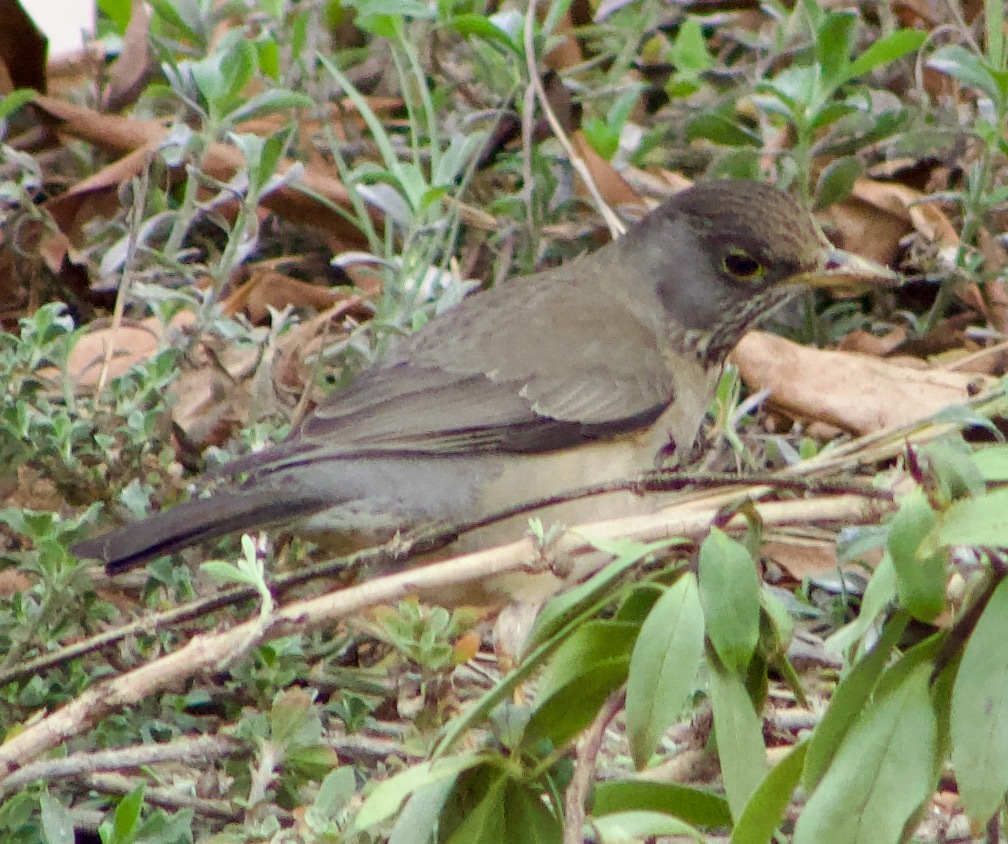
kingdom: Animalia
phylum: Chordata
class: Aves
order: Passeriformes
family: Turdidae
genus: Turdus
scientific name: Turdus falcklandii
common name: Austral thrush
